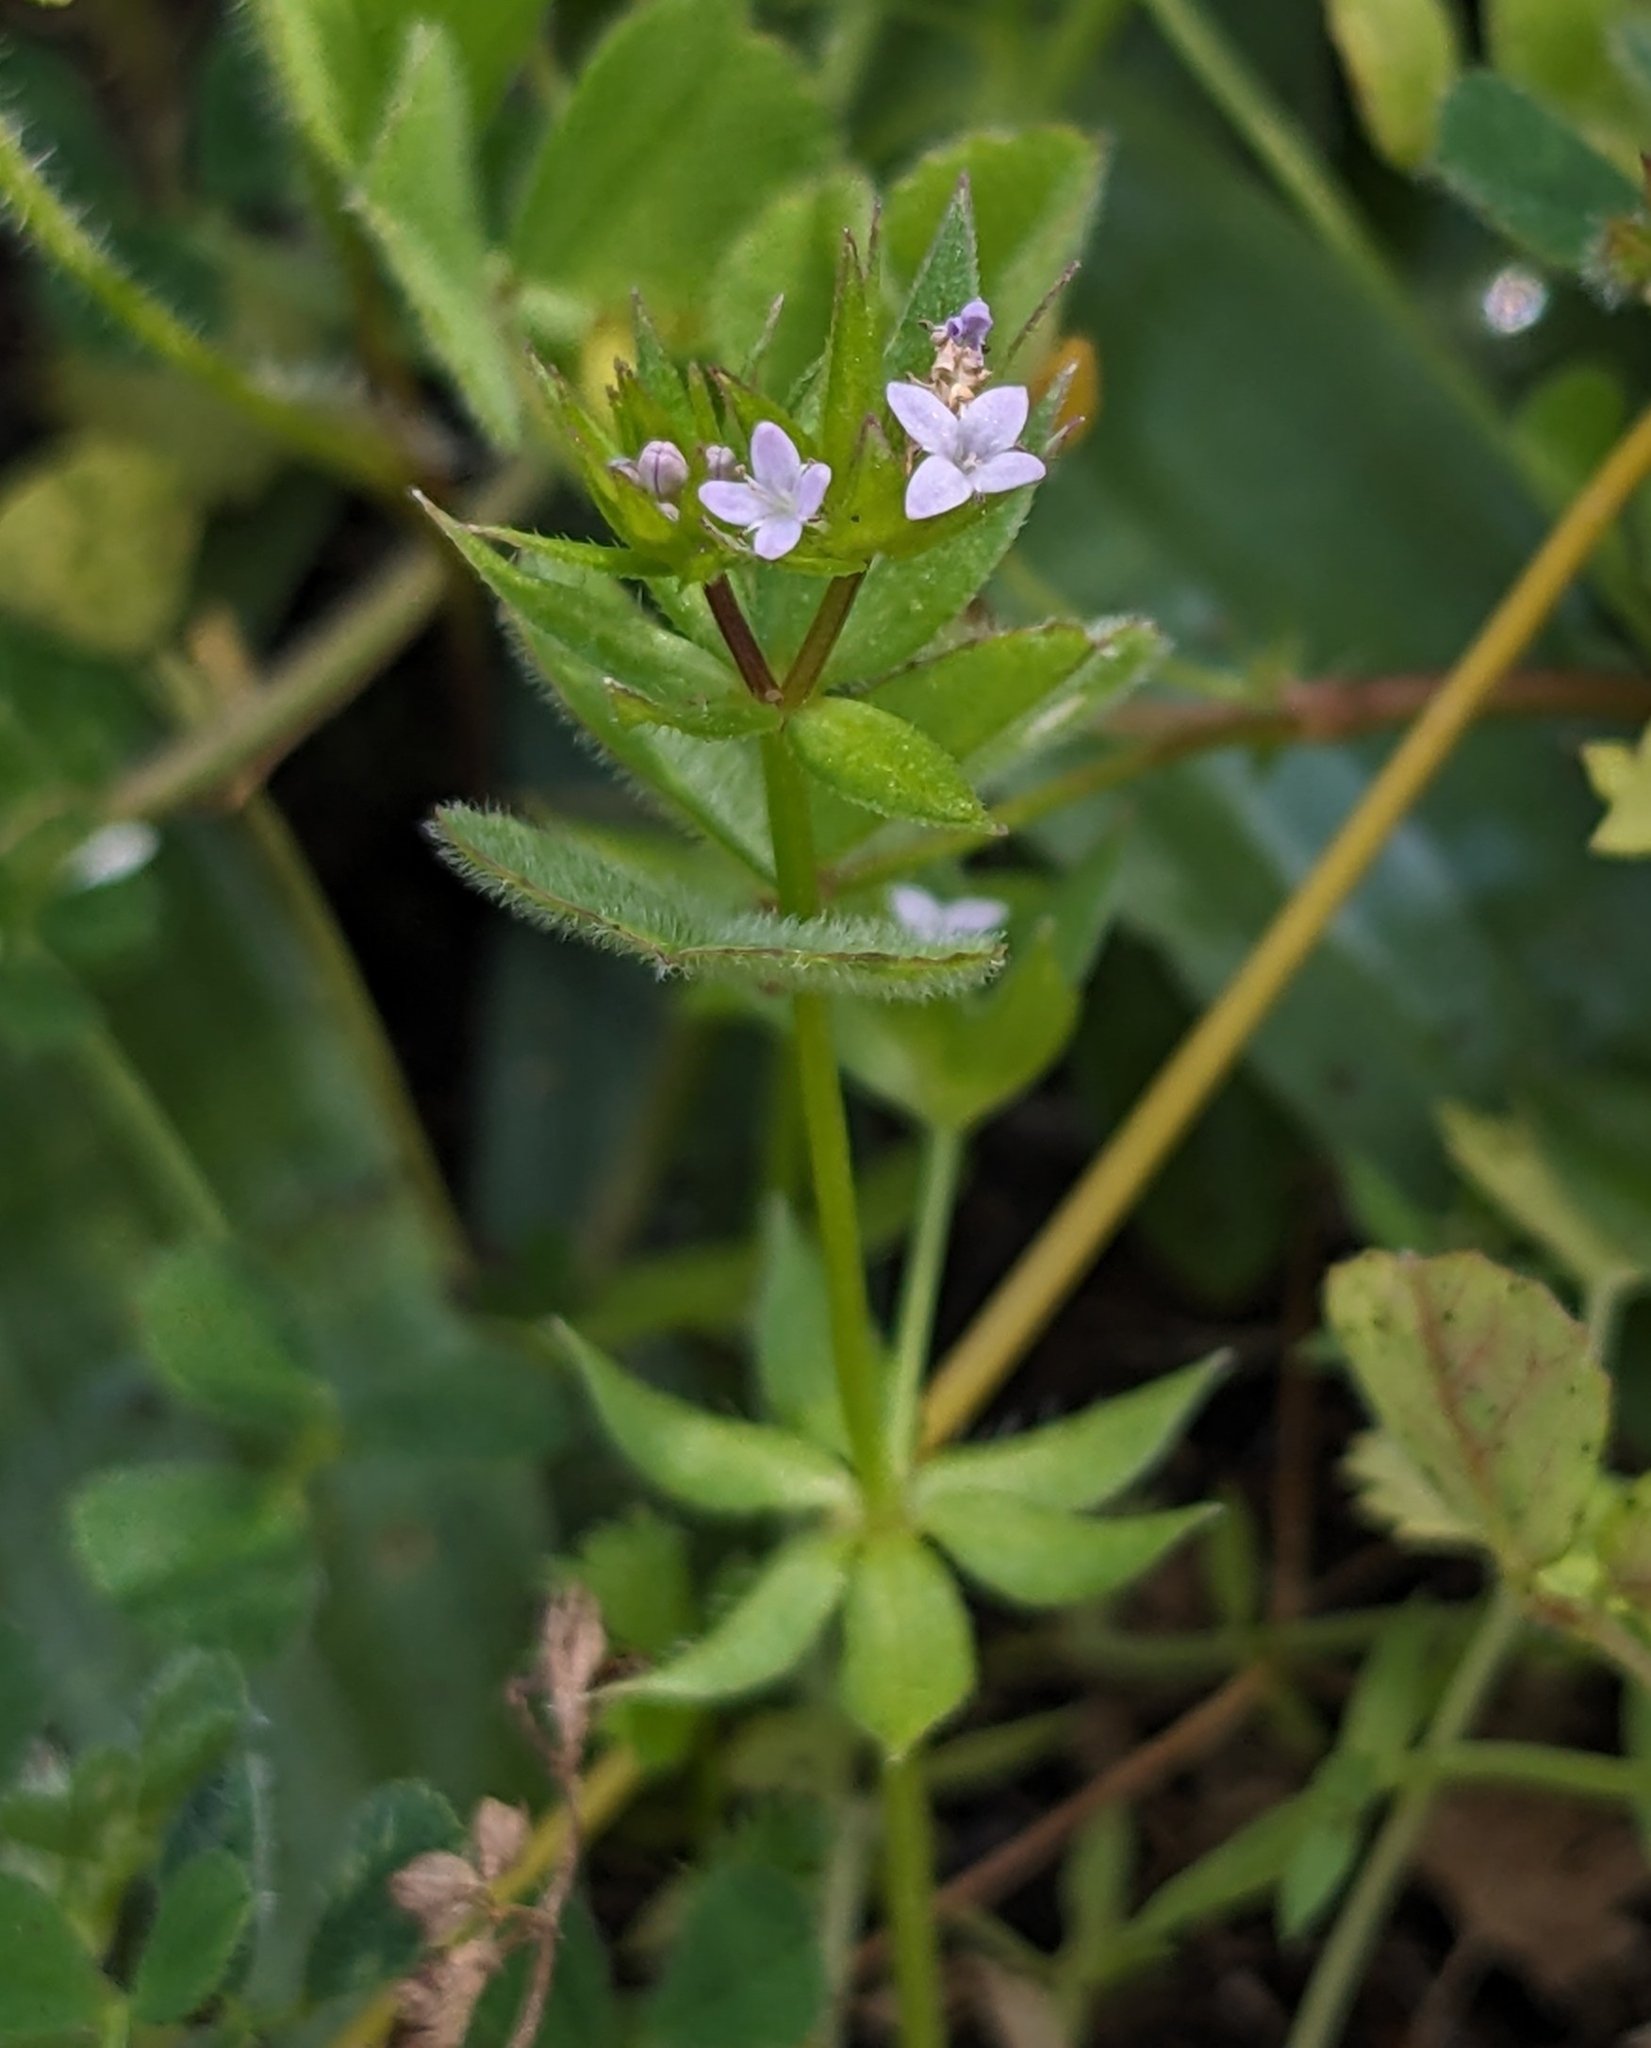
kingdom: Plantae
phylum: Tracheophyta
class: Magnoliopsida
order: Gentianales
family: Rubiaceae
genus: Sherardia
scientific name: Sherardia arvensis
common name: Field madder
